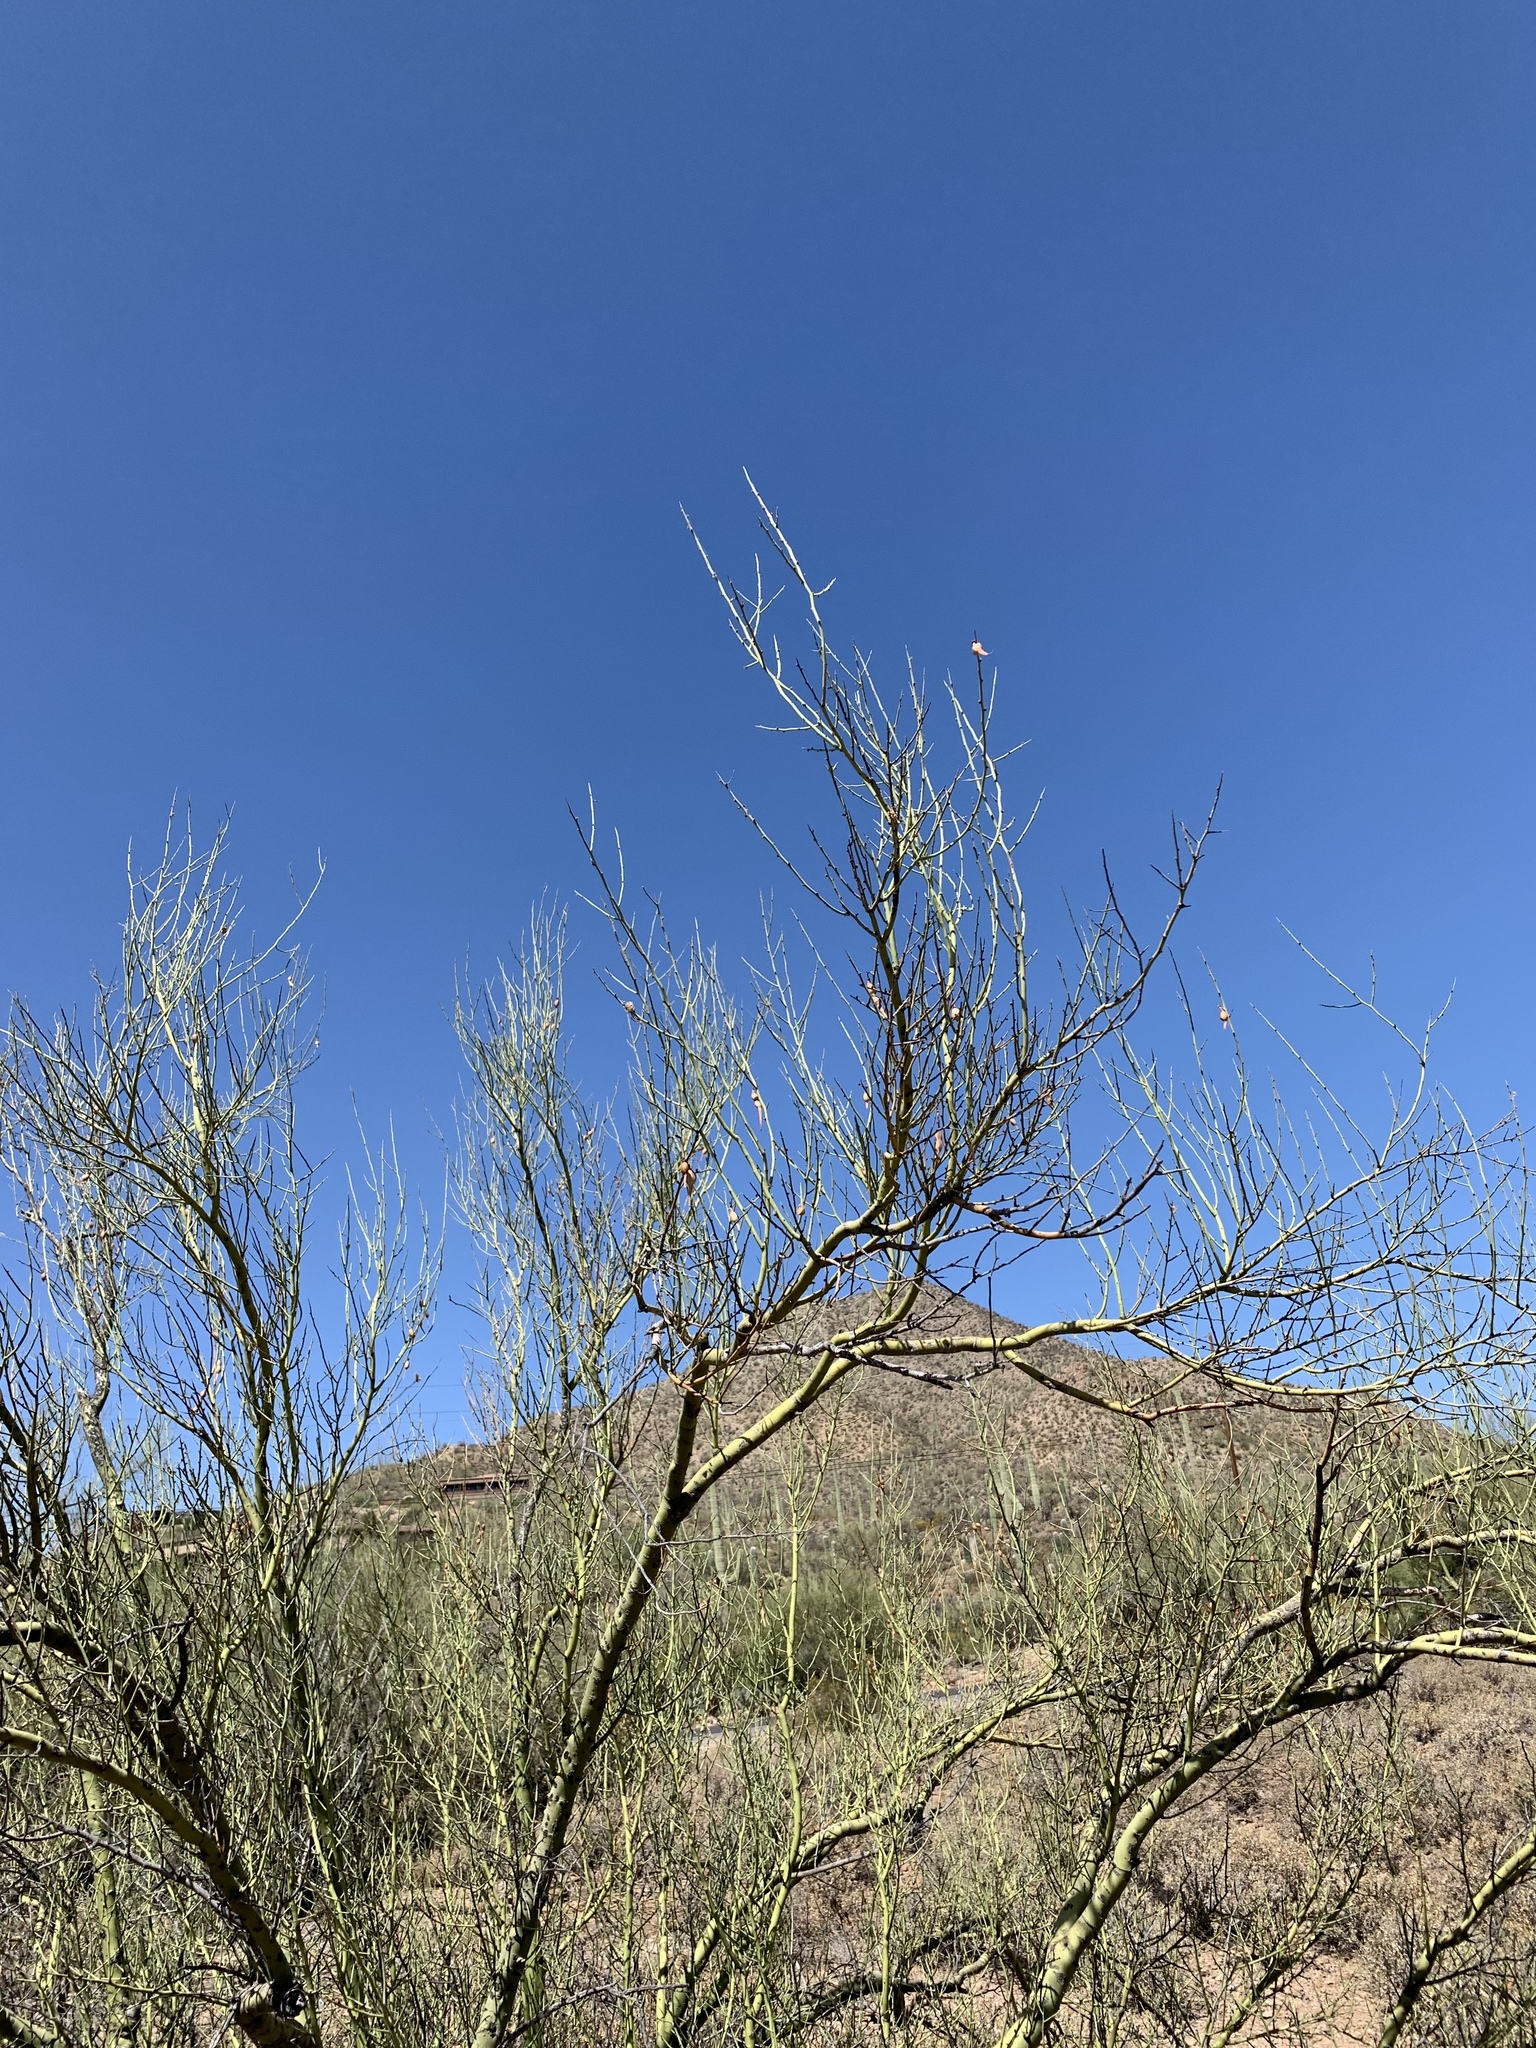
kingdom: Plantae
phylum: Tracheophyta
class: Magnoliopsida
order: Fabales
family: Fabaceae
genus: Parkinsonia
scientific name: Parkinsonia microphylla
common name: Yellow paloverde
